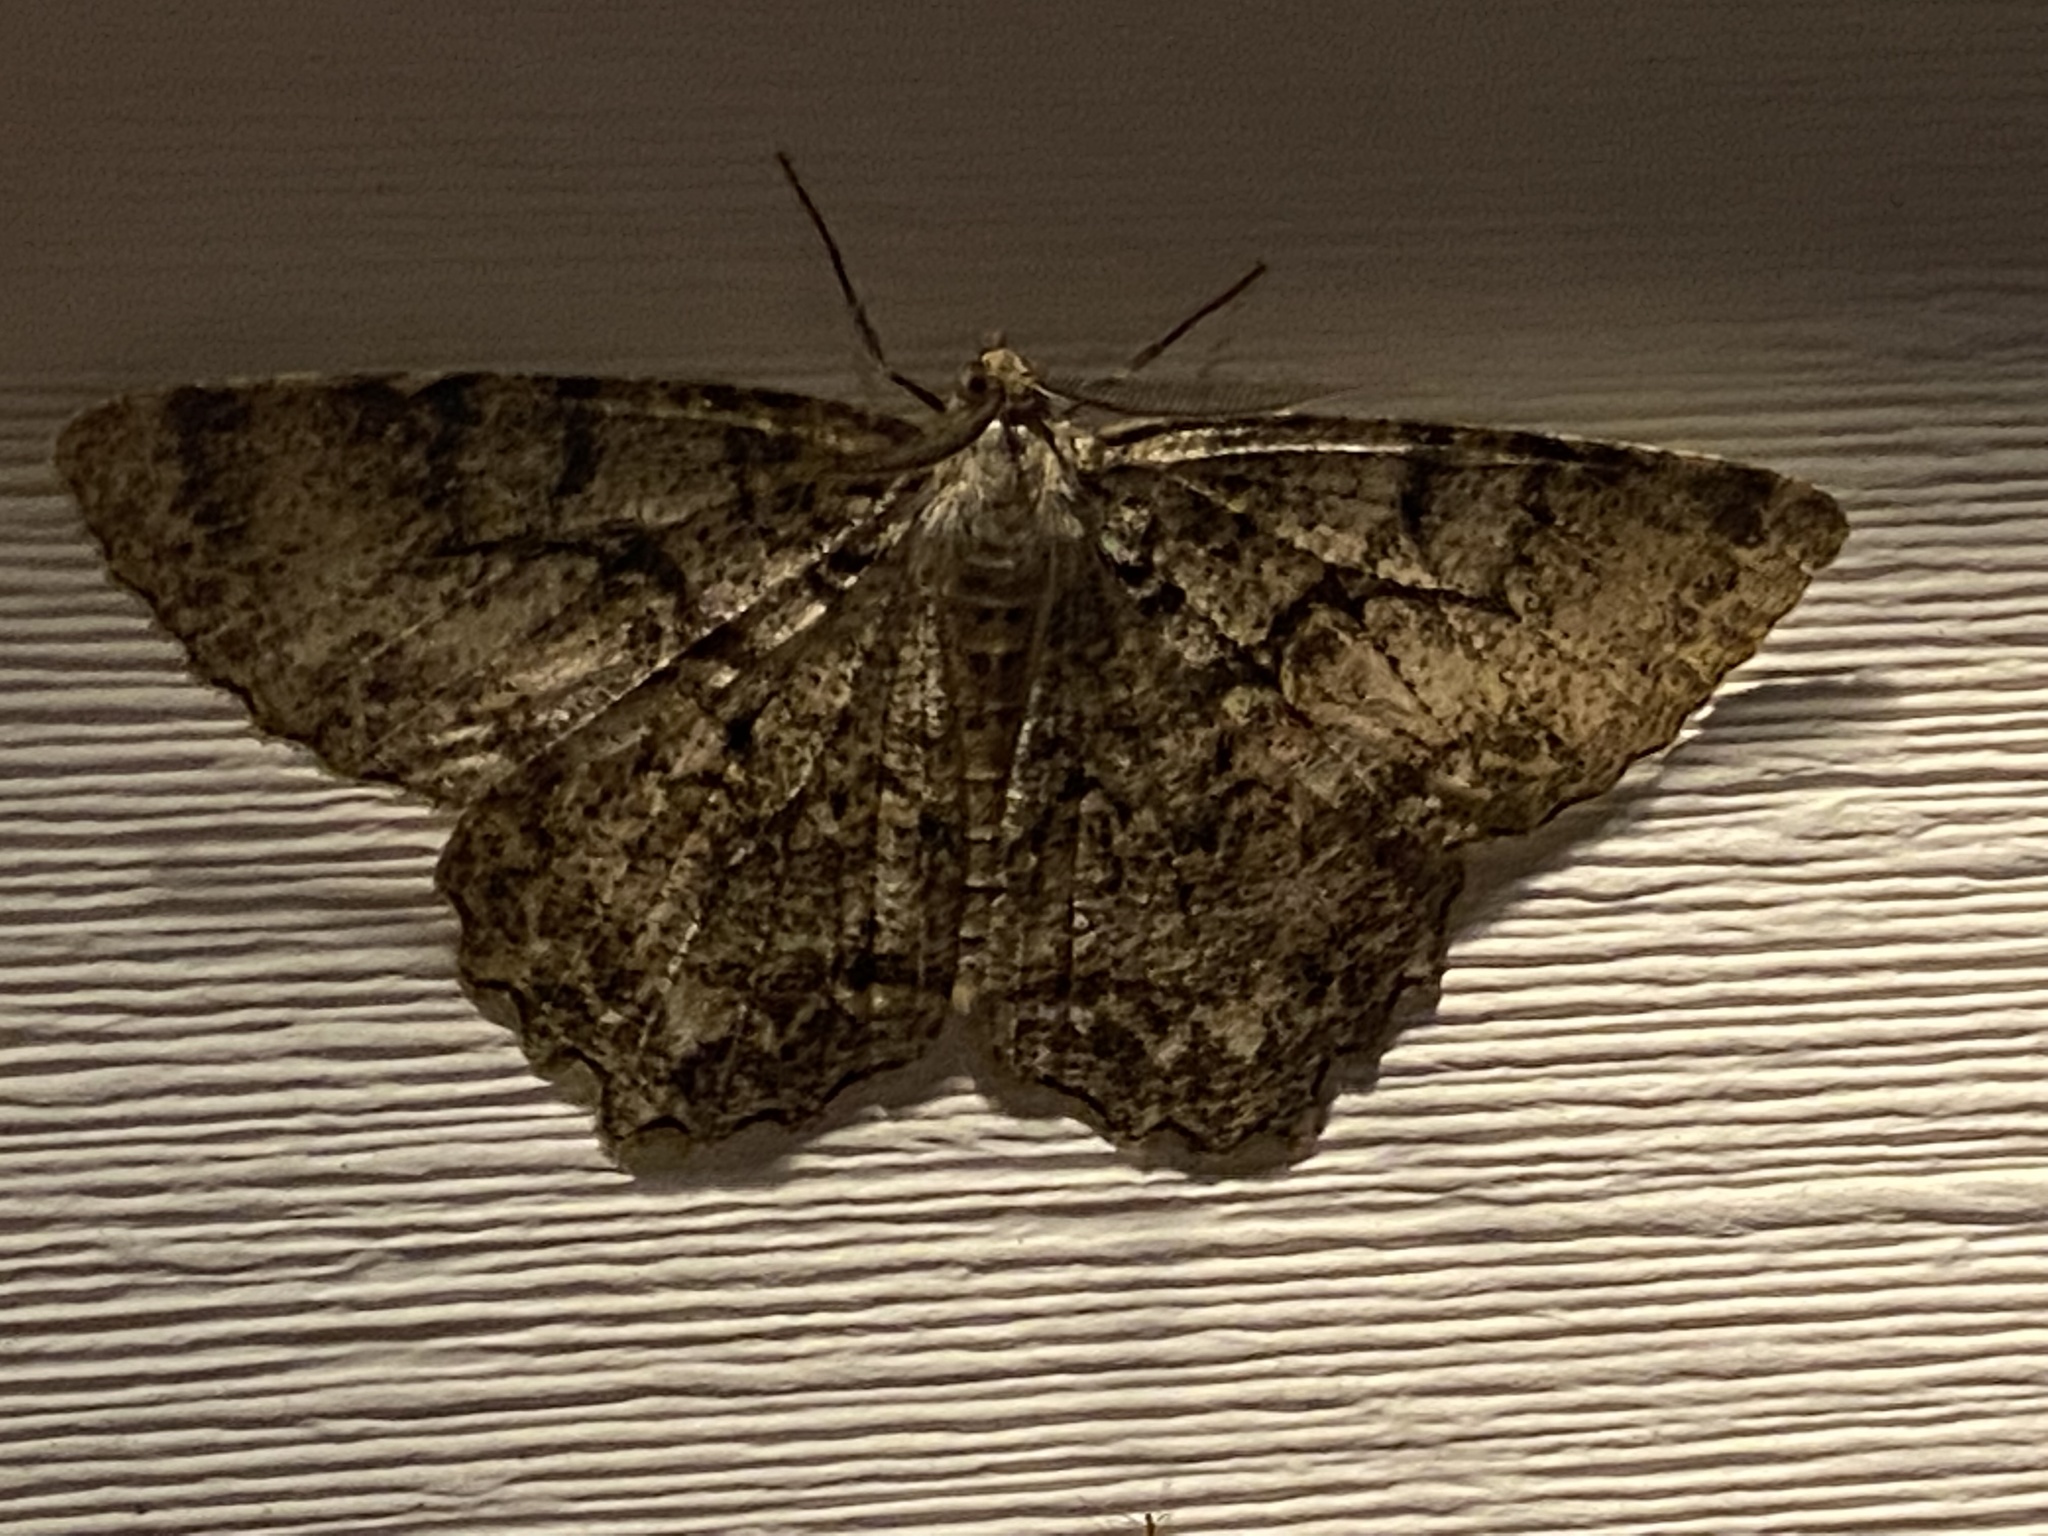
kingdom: Animalia
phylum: Arthropoda
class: Insecta
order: Lepidoptera
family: Geometridae
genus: Epimecis
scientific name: Epimecis hortaria
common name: Tulip-tree beauty
